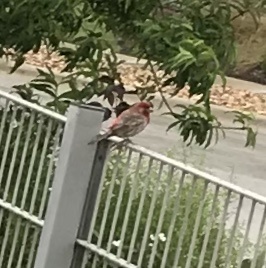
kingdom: Animalia
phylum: Chordata
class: Aves
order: Passeriformes
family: Fringillidae
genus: Haemorhous
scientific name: Haemorhous mexicanus
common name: House finch
